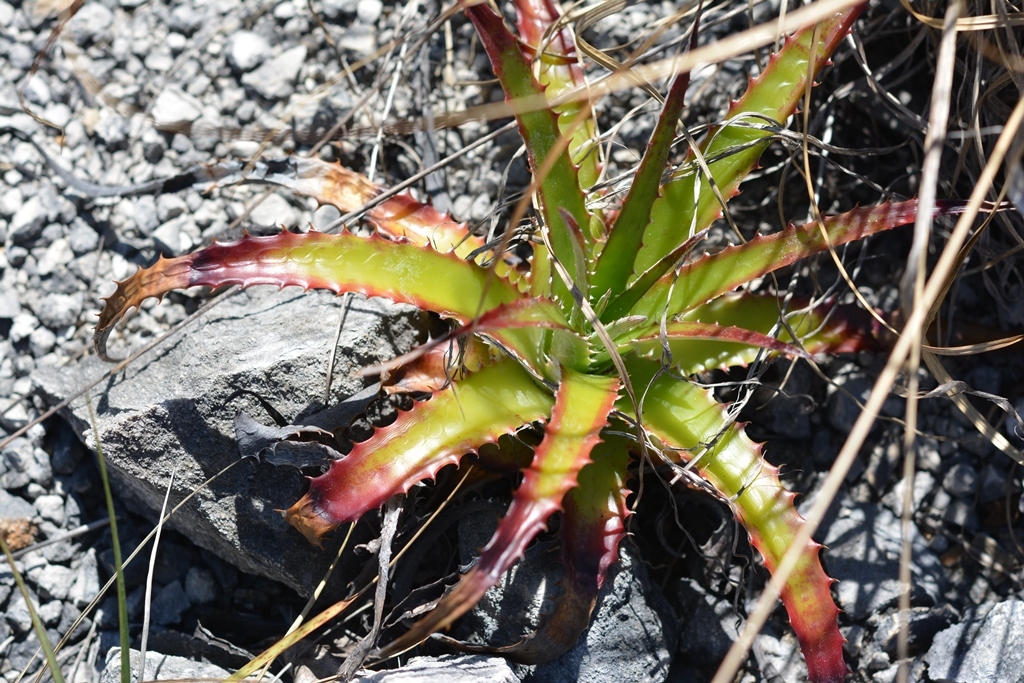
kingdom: Plantae
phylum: Tracheophyta
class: Liliopsida
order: Poales
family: Bromeliaceae
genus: Hechtia
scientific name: Hechtia glomerata
